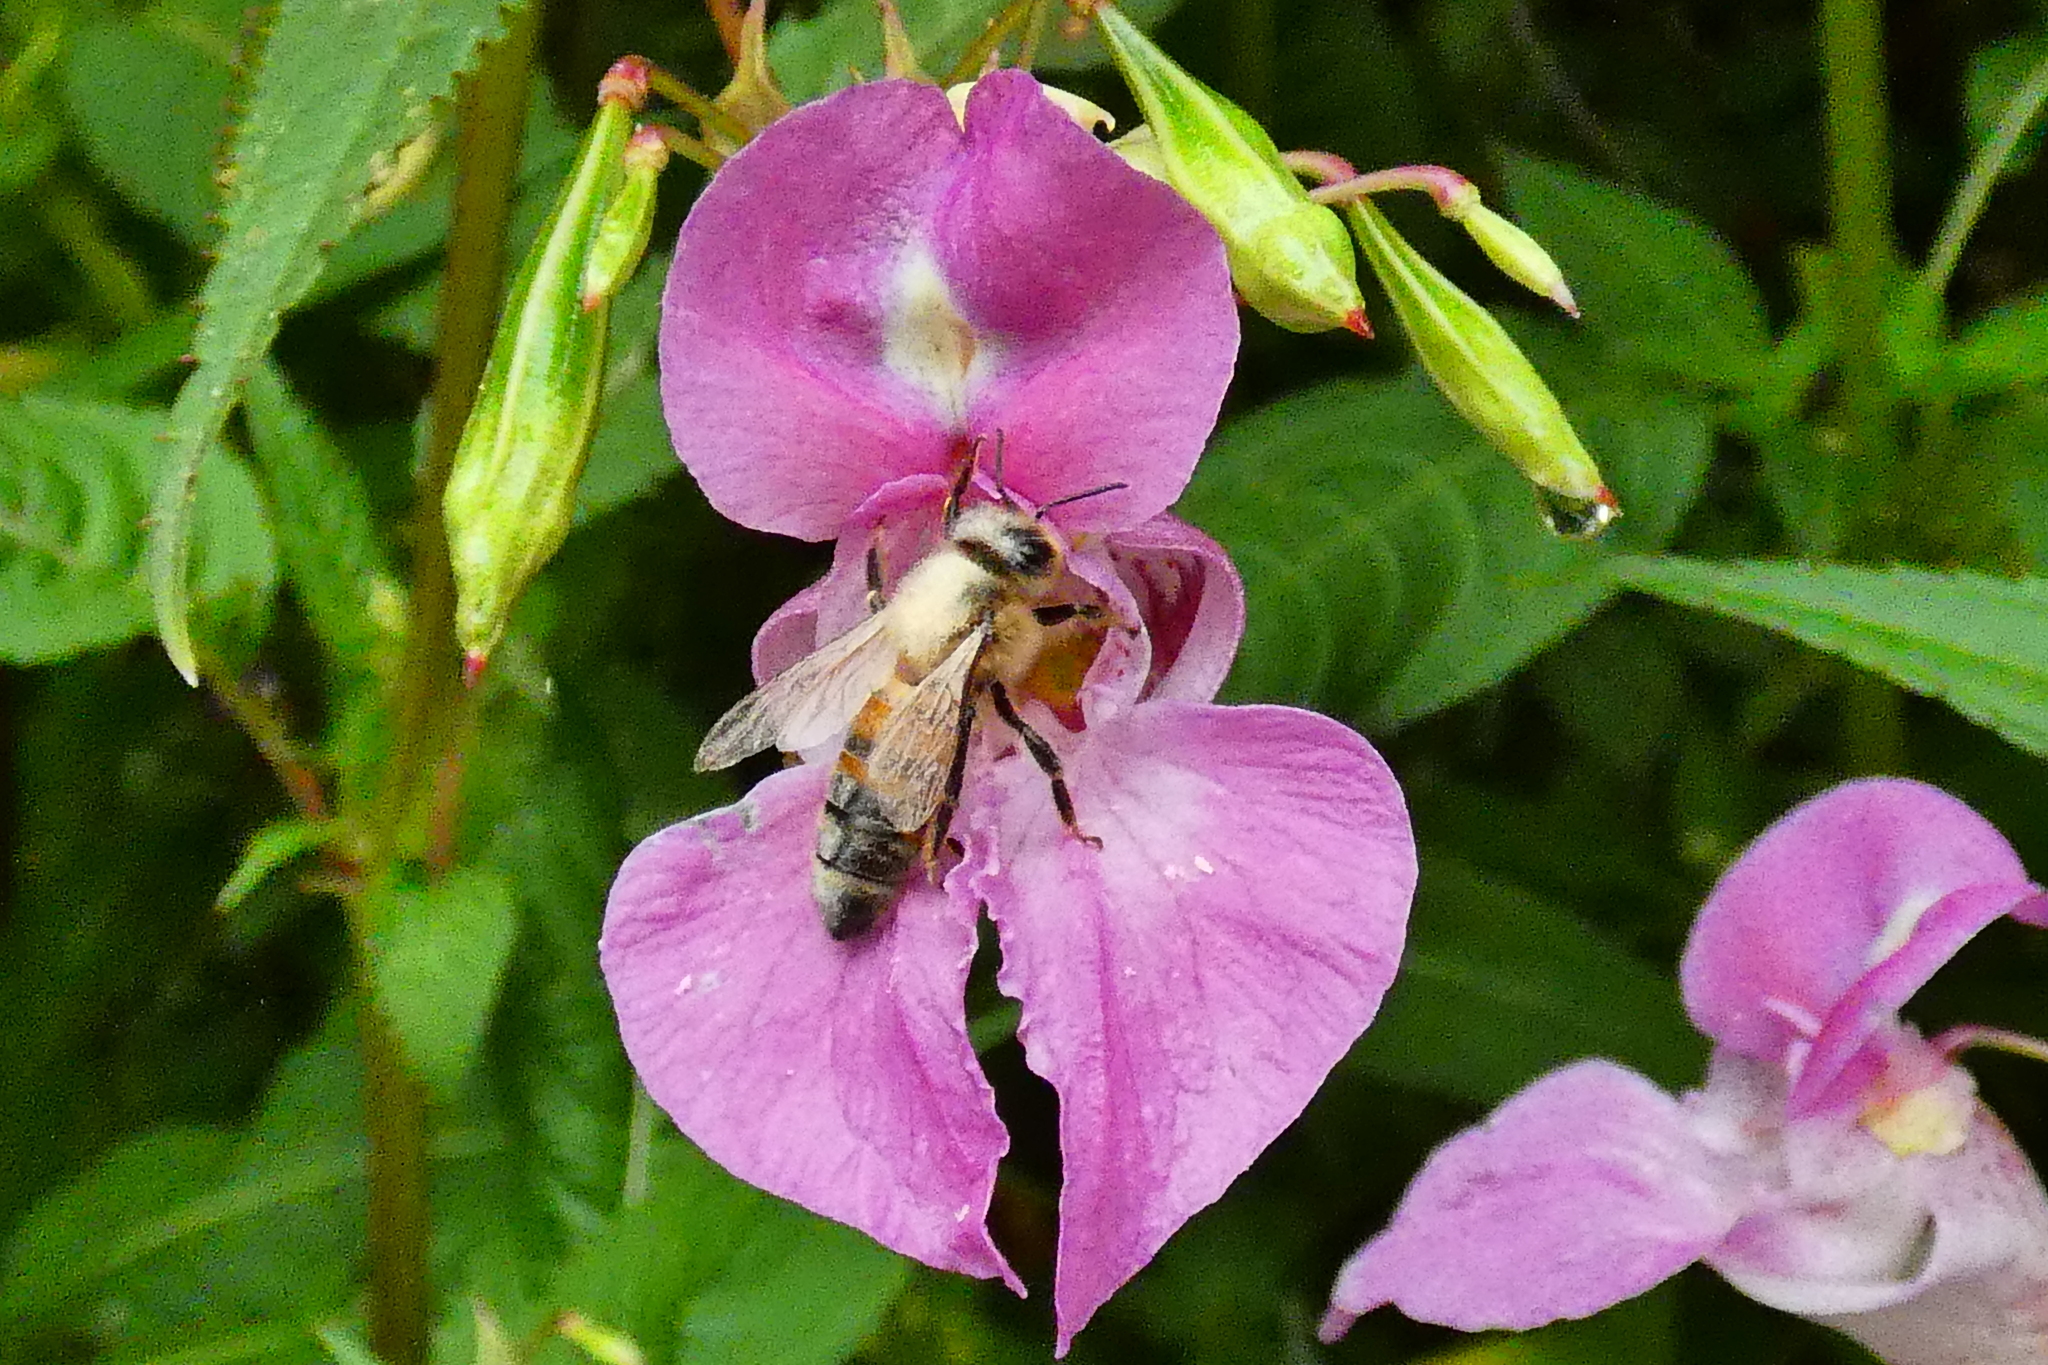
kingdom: Animalia
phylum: Arthropoda
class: Insecta
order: Hymenoptera
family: Apidae
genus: Apis
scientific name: Apis mellifera
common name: Honey bee
